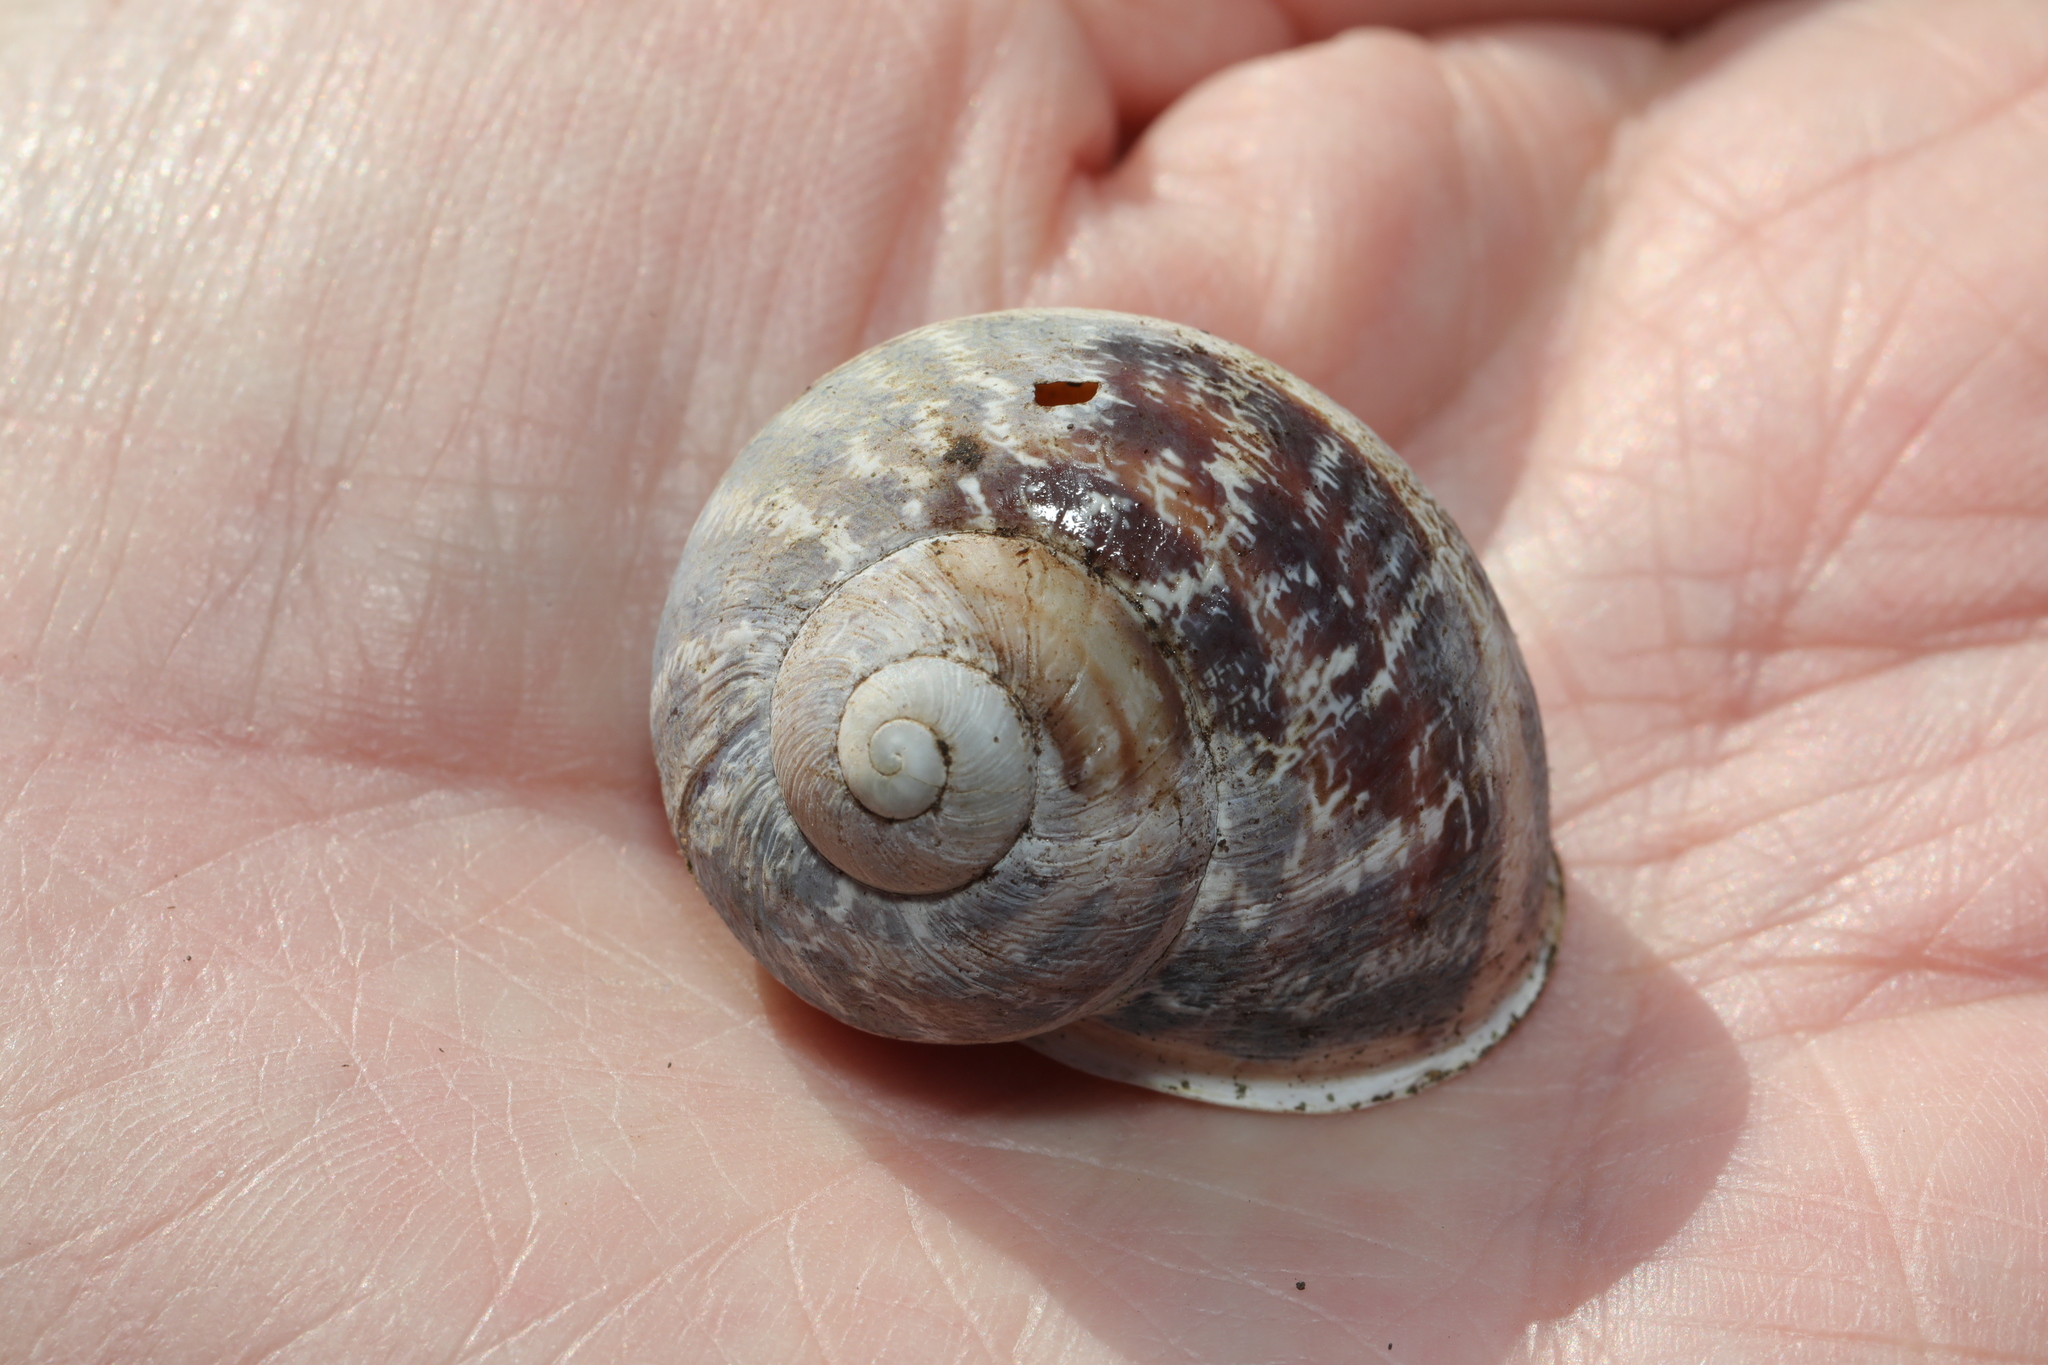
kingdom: Animalia
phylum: Mollusca
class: Gastropoda
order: Stylommatophora
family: Helicidae
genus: Cornu
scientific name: Cornu aspersum
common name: Brown garden snail
